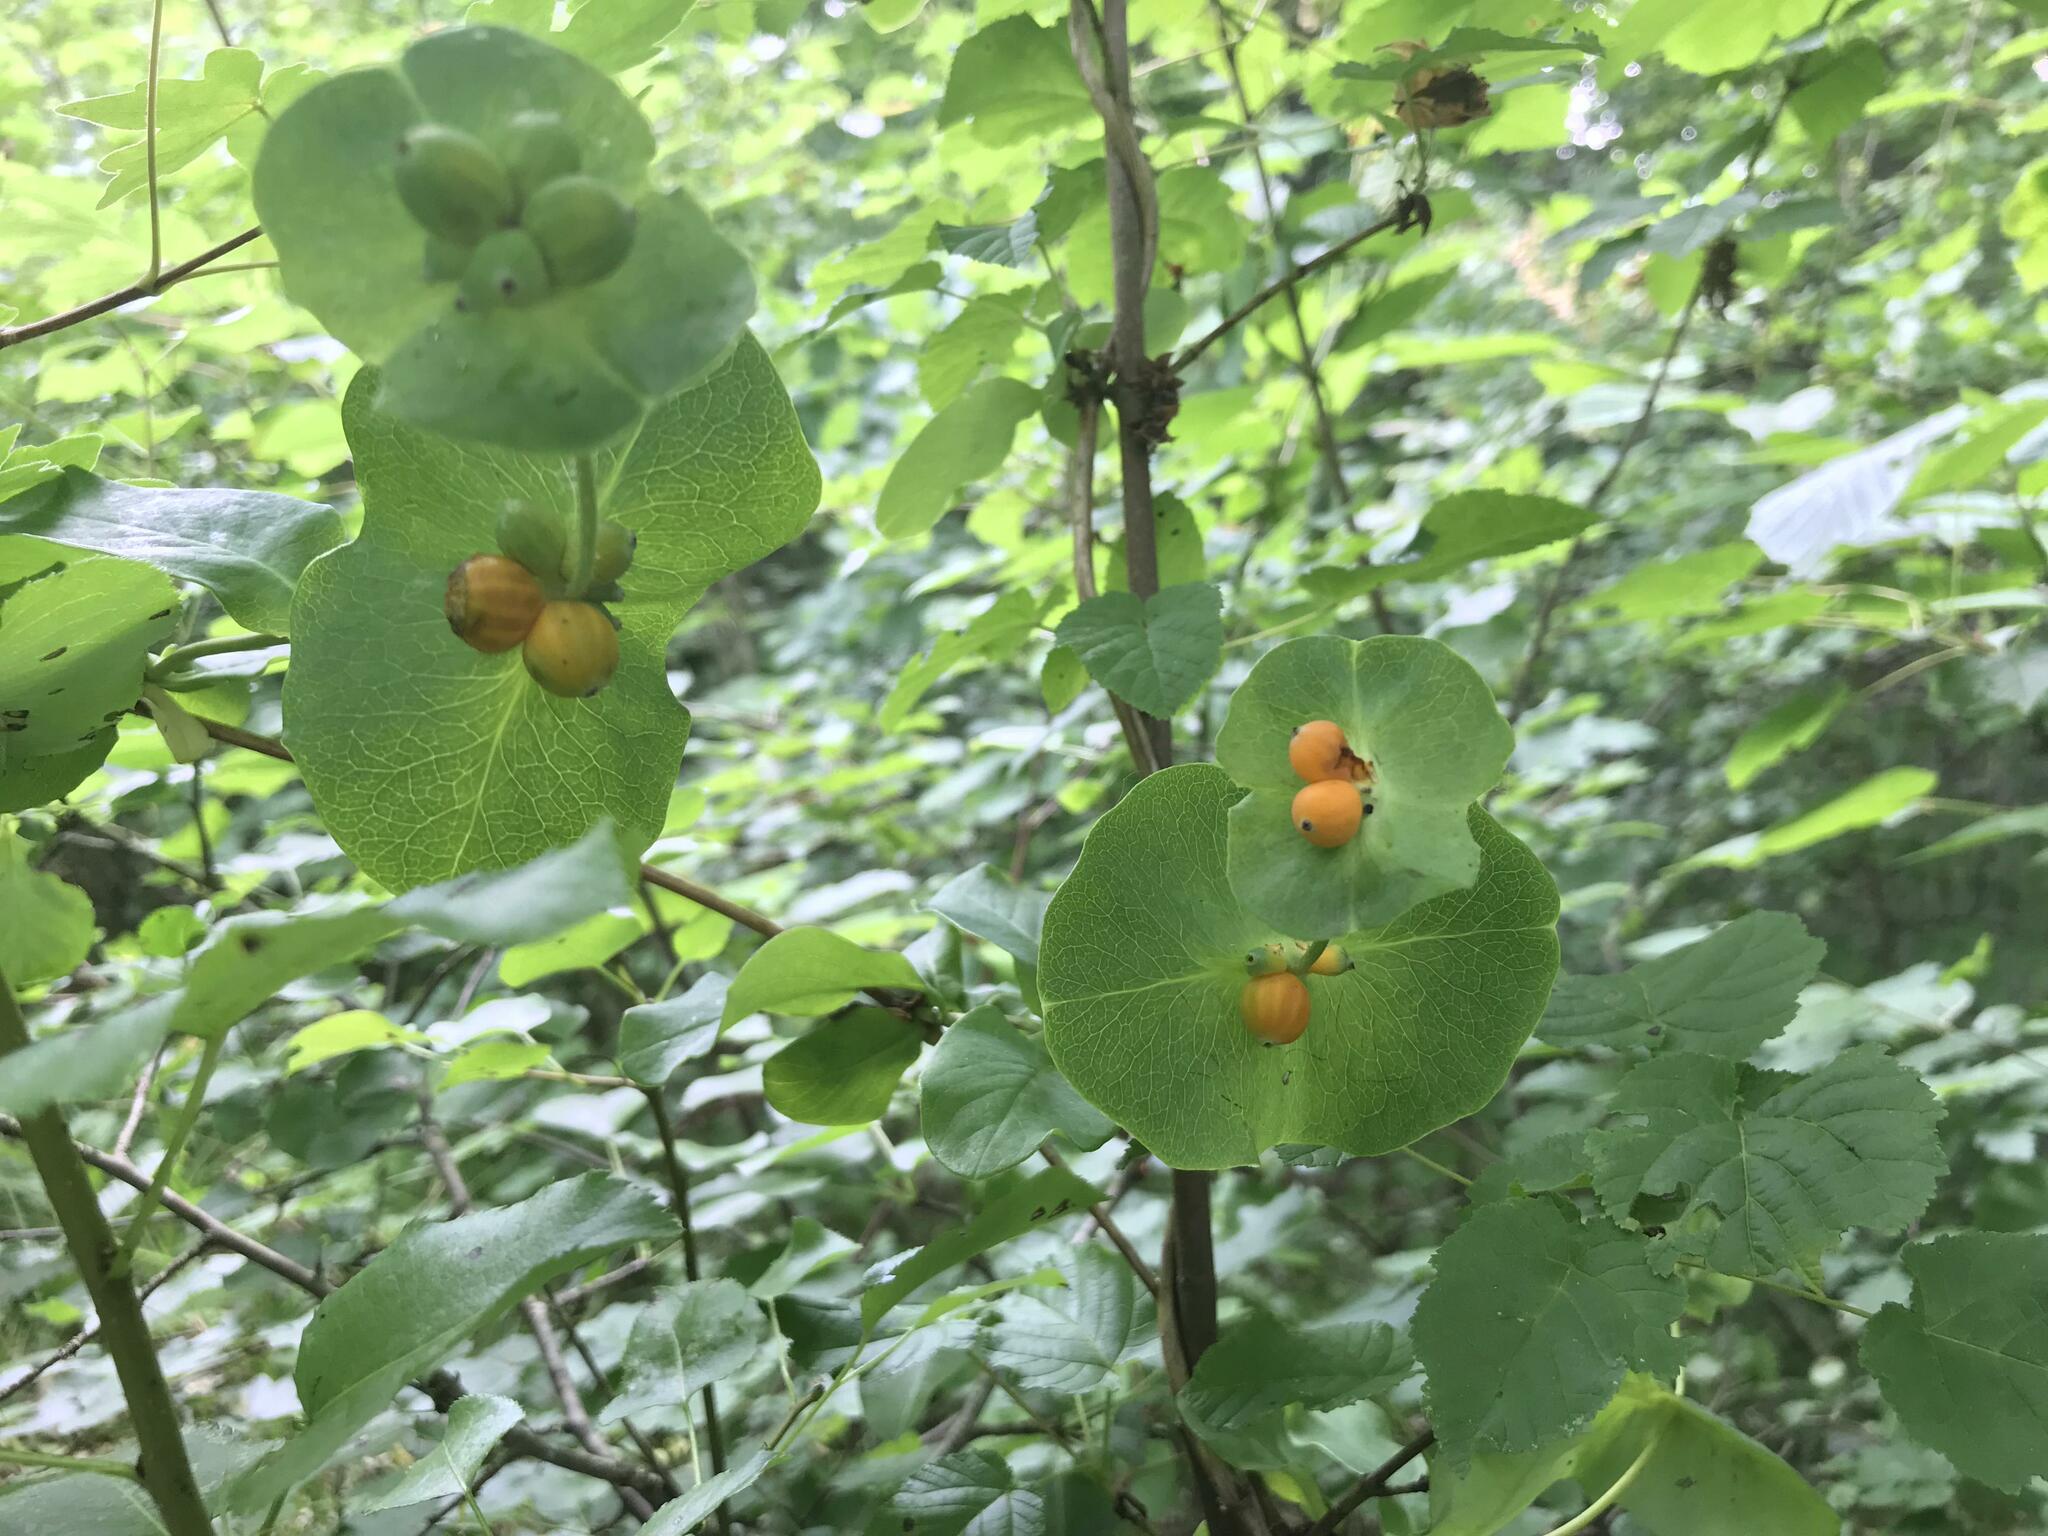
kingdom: Plantae
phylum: Tracheophyta
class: Magnoliopsida
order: Dipsacales
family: Caprifoliaceae
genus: Lonicera
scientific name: Lonicera caprifolium
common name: Perfoliate honeysuckle
